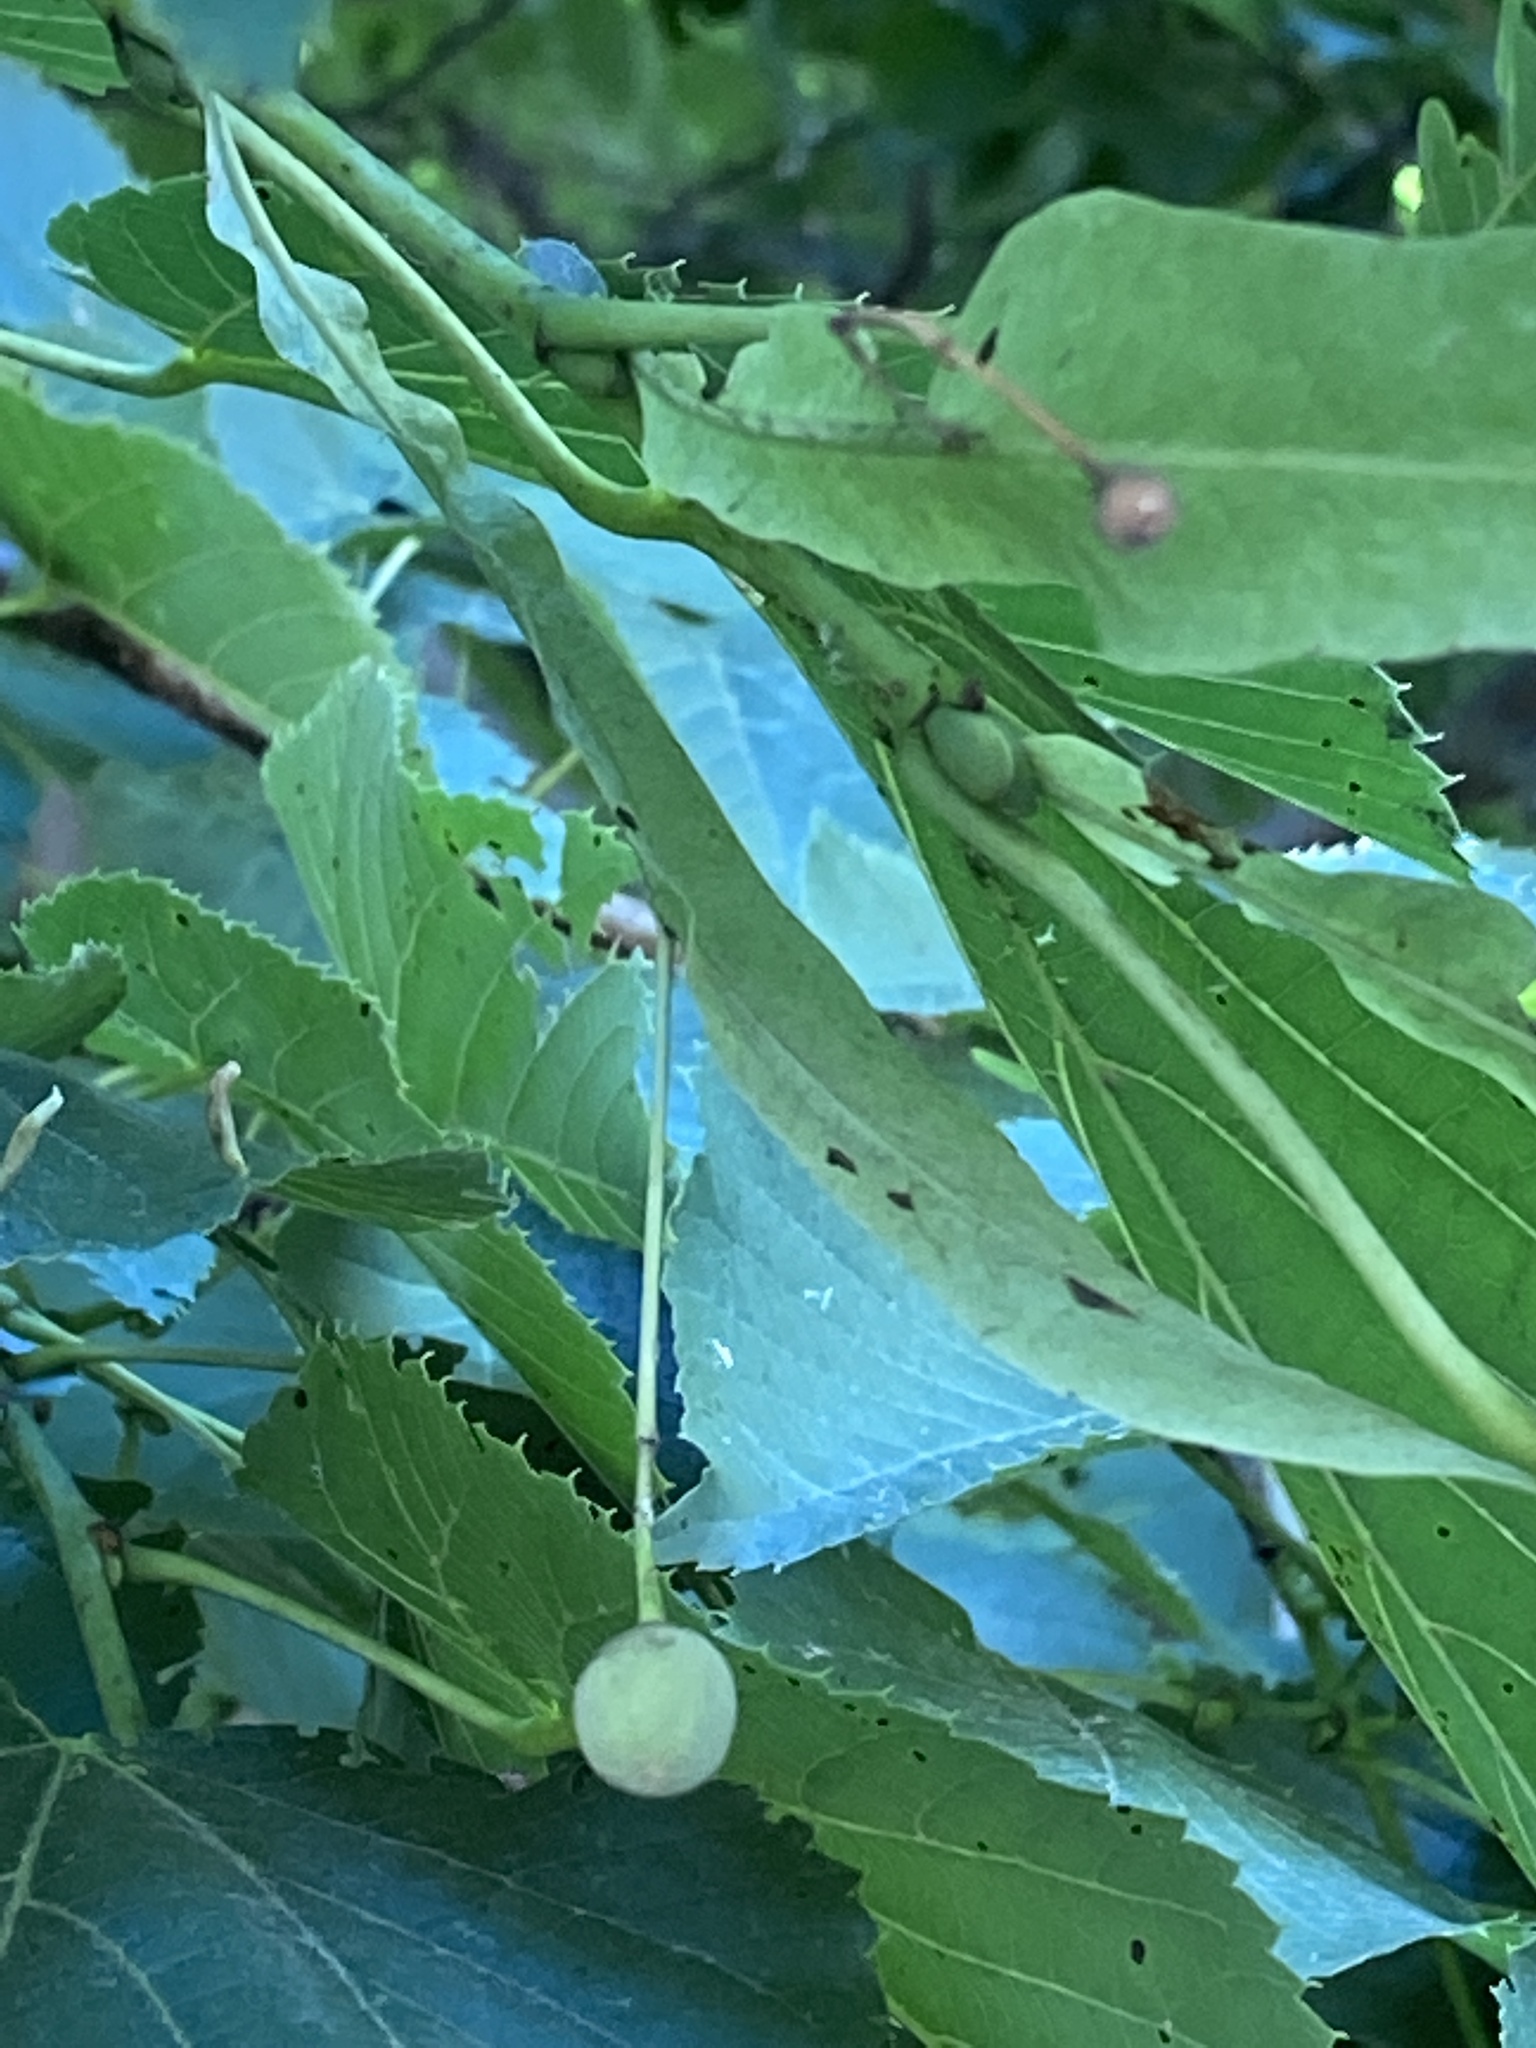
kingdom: Plantae
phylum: Tracheophyta
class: Magnoliopsida
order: Malvales
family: Malvaceae
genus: Tilia
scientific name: Tilia americana
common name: Basswood
